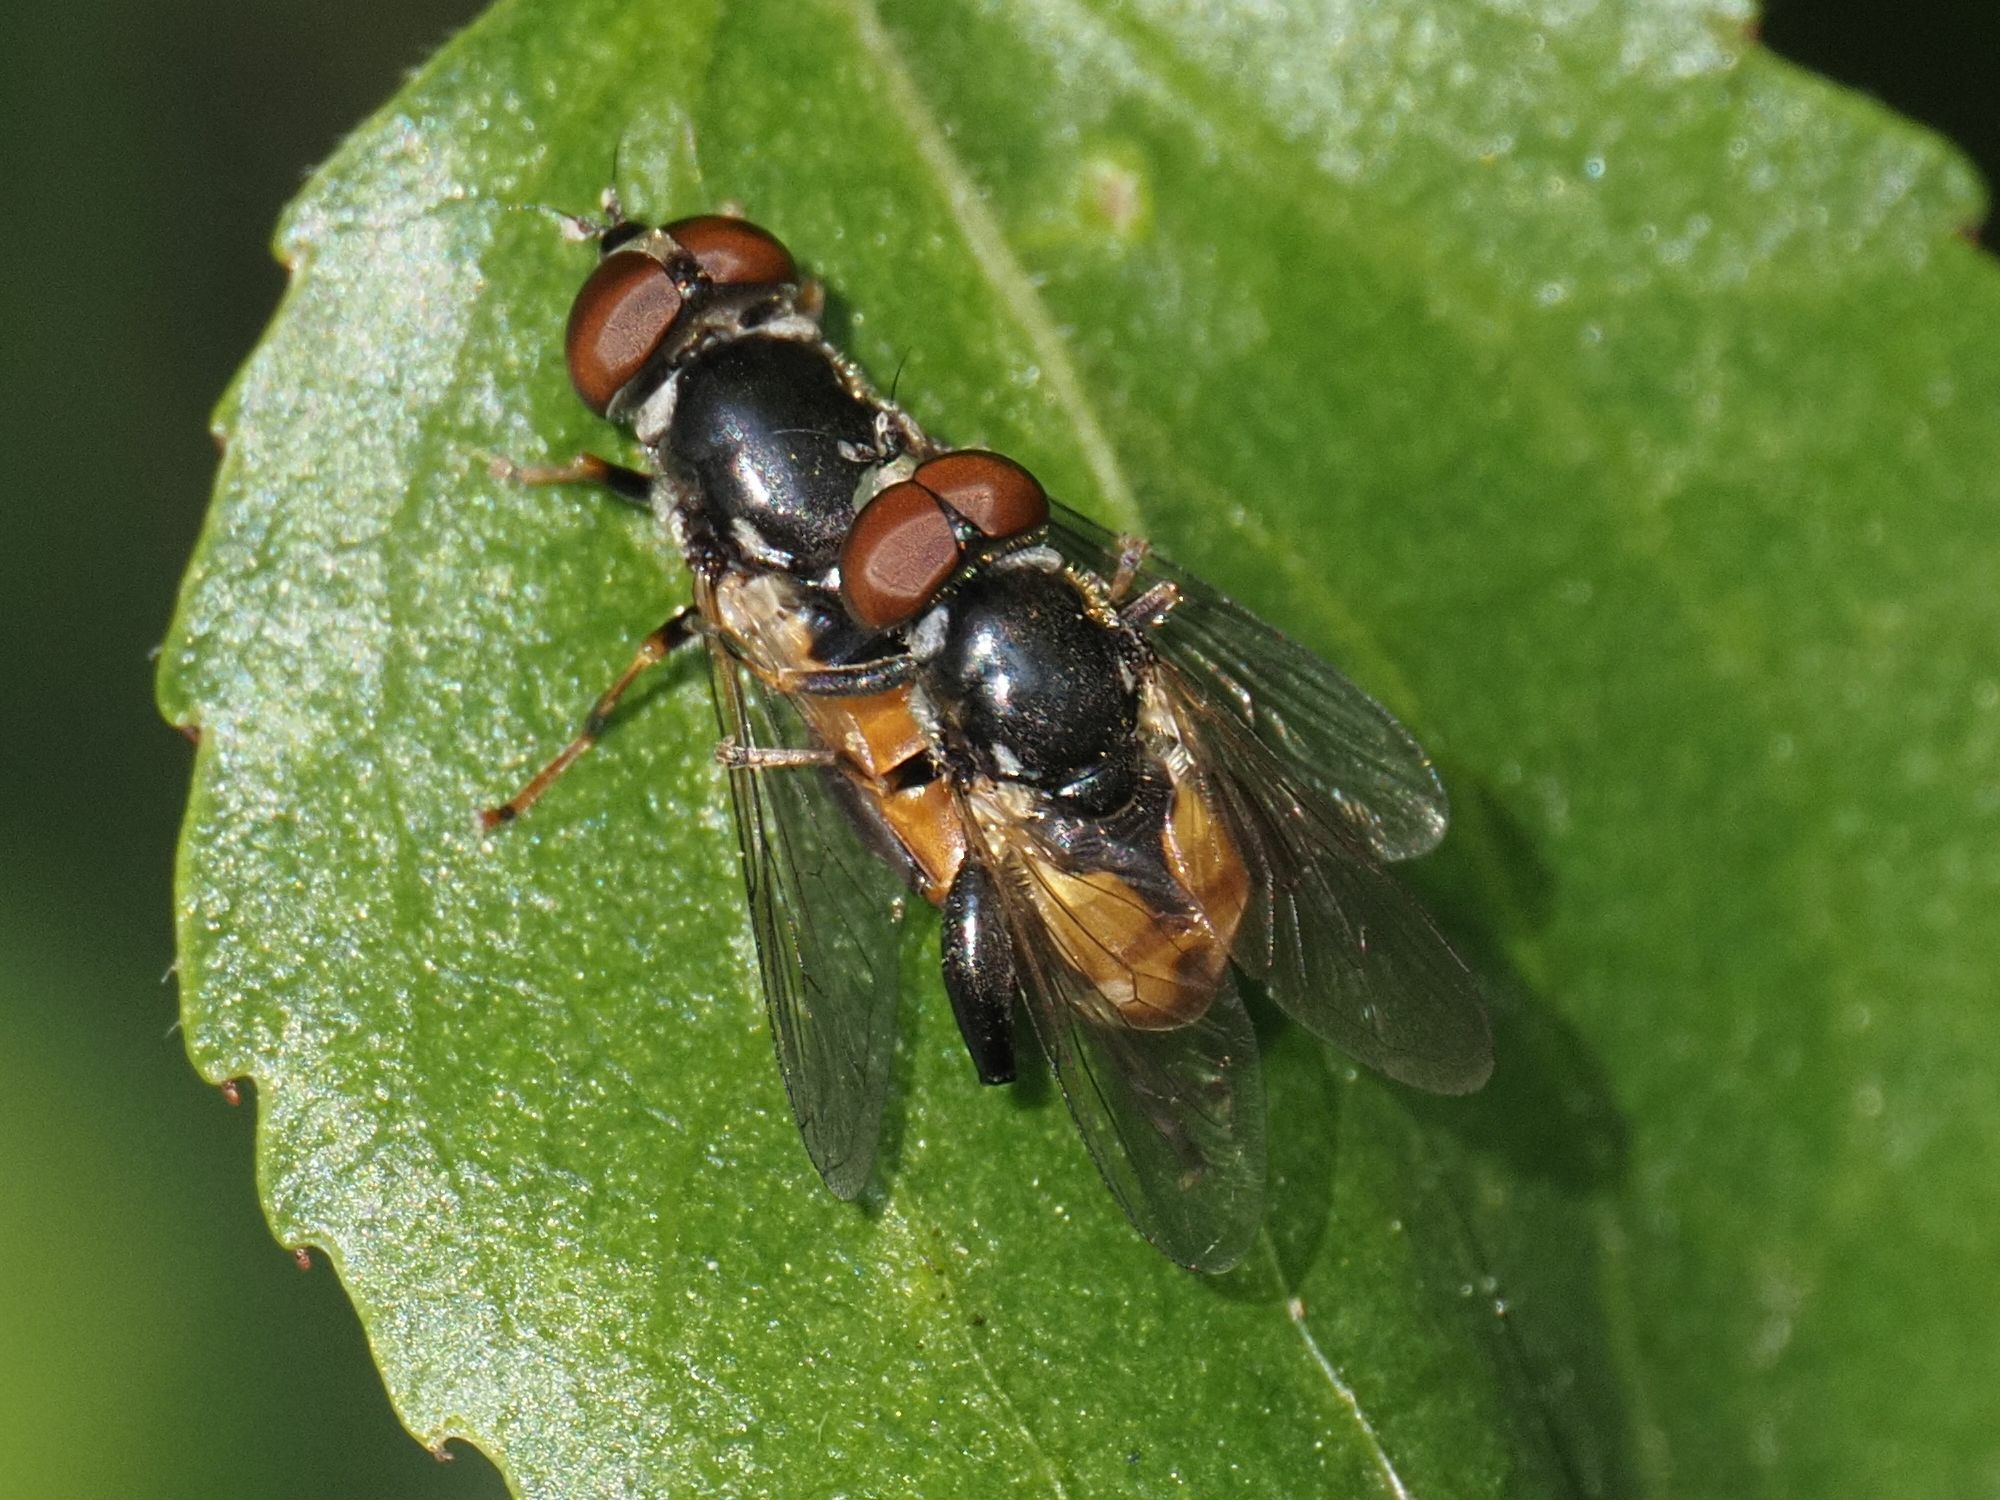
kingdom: Animalia
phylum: Arthropoda
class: Insecta
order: Diptera
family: Syrphidae
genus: Tropidia
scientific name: Tropidia scita
